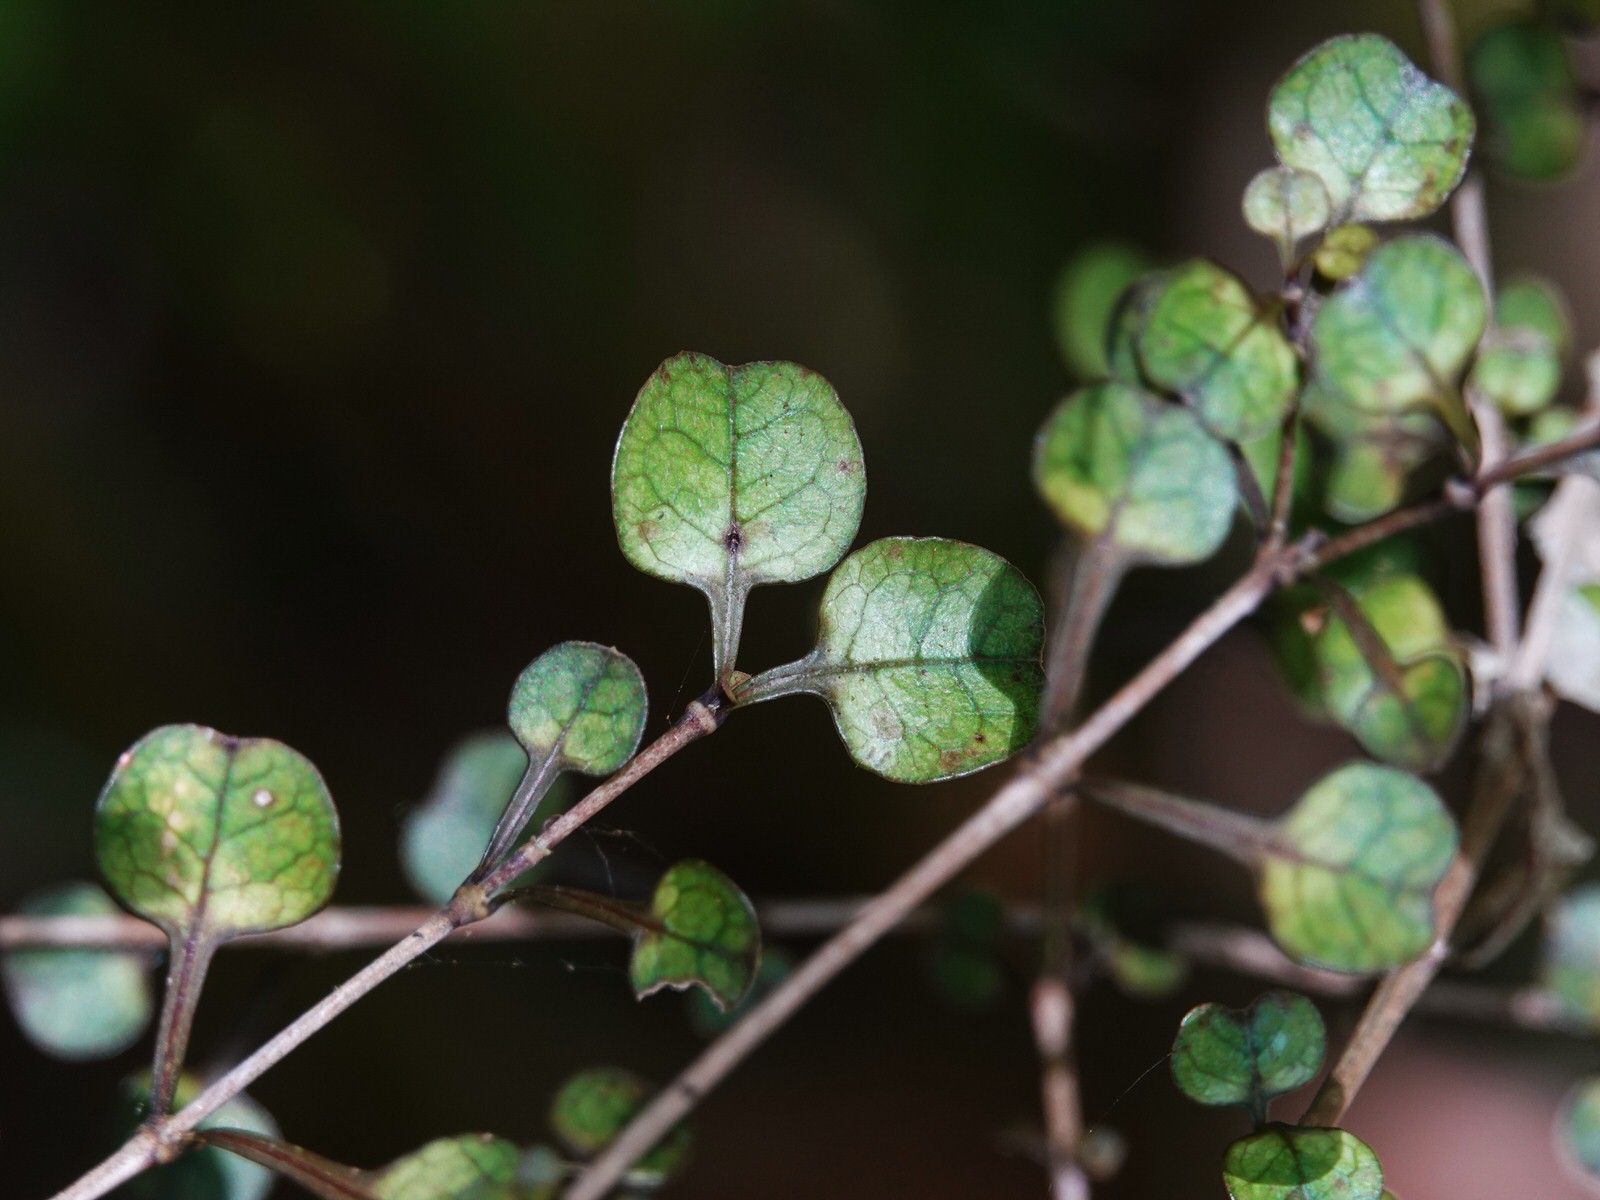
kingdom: Plantae
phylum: Tracheophyta
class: Magnoliopsida
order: Gentianales
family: Rubiaceae
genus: Coprosma
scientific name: Coprosma spathulata
